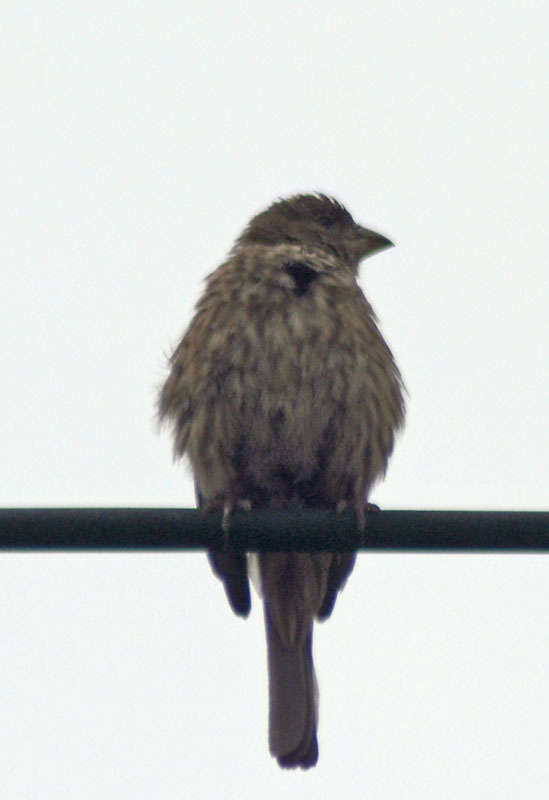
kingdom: Animalia
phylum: Chordata
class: Aves
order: Passeriformes
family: Fringillidae
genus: Haemorhous
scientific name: Haemorhous mexicanus
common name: House finch
